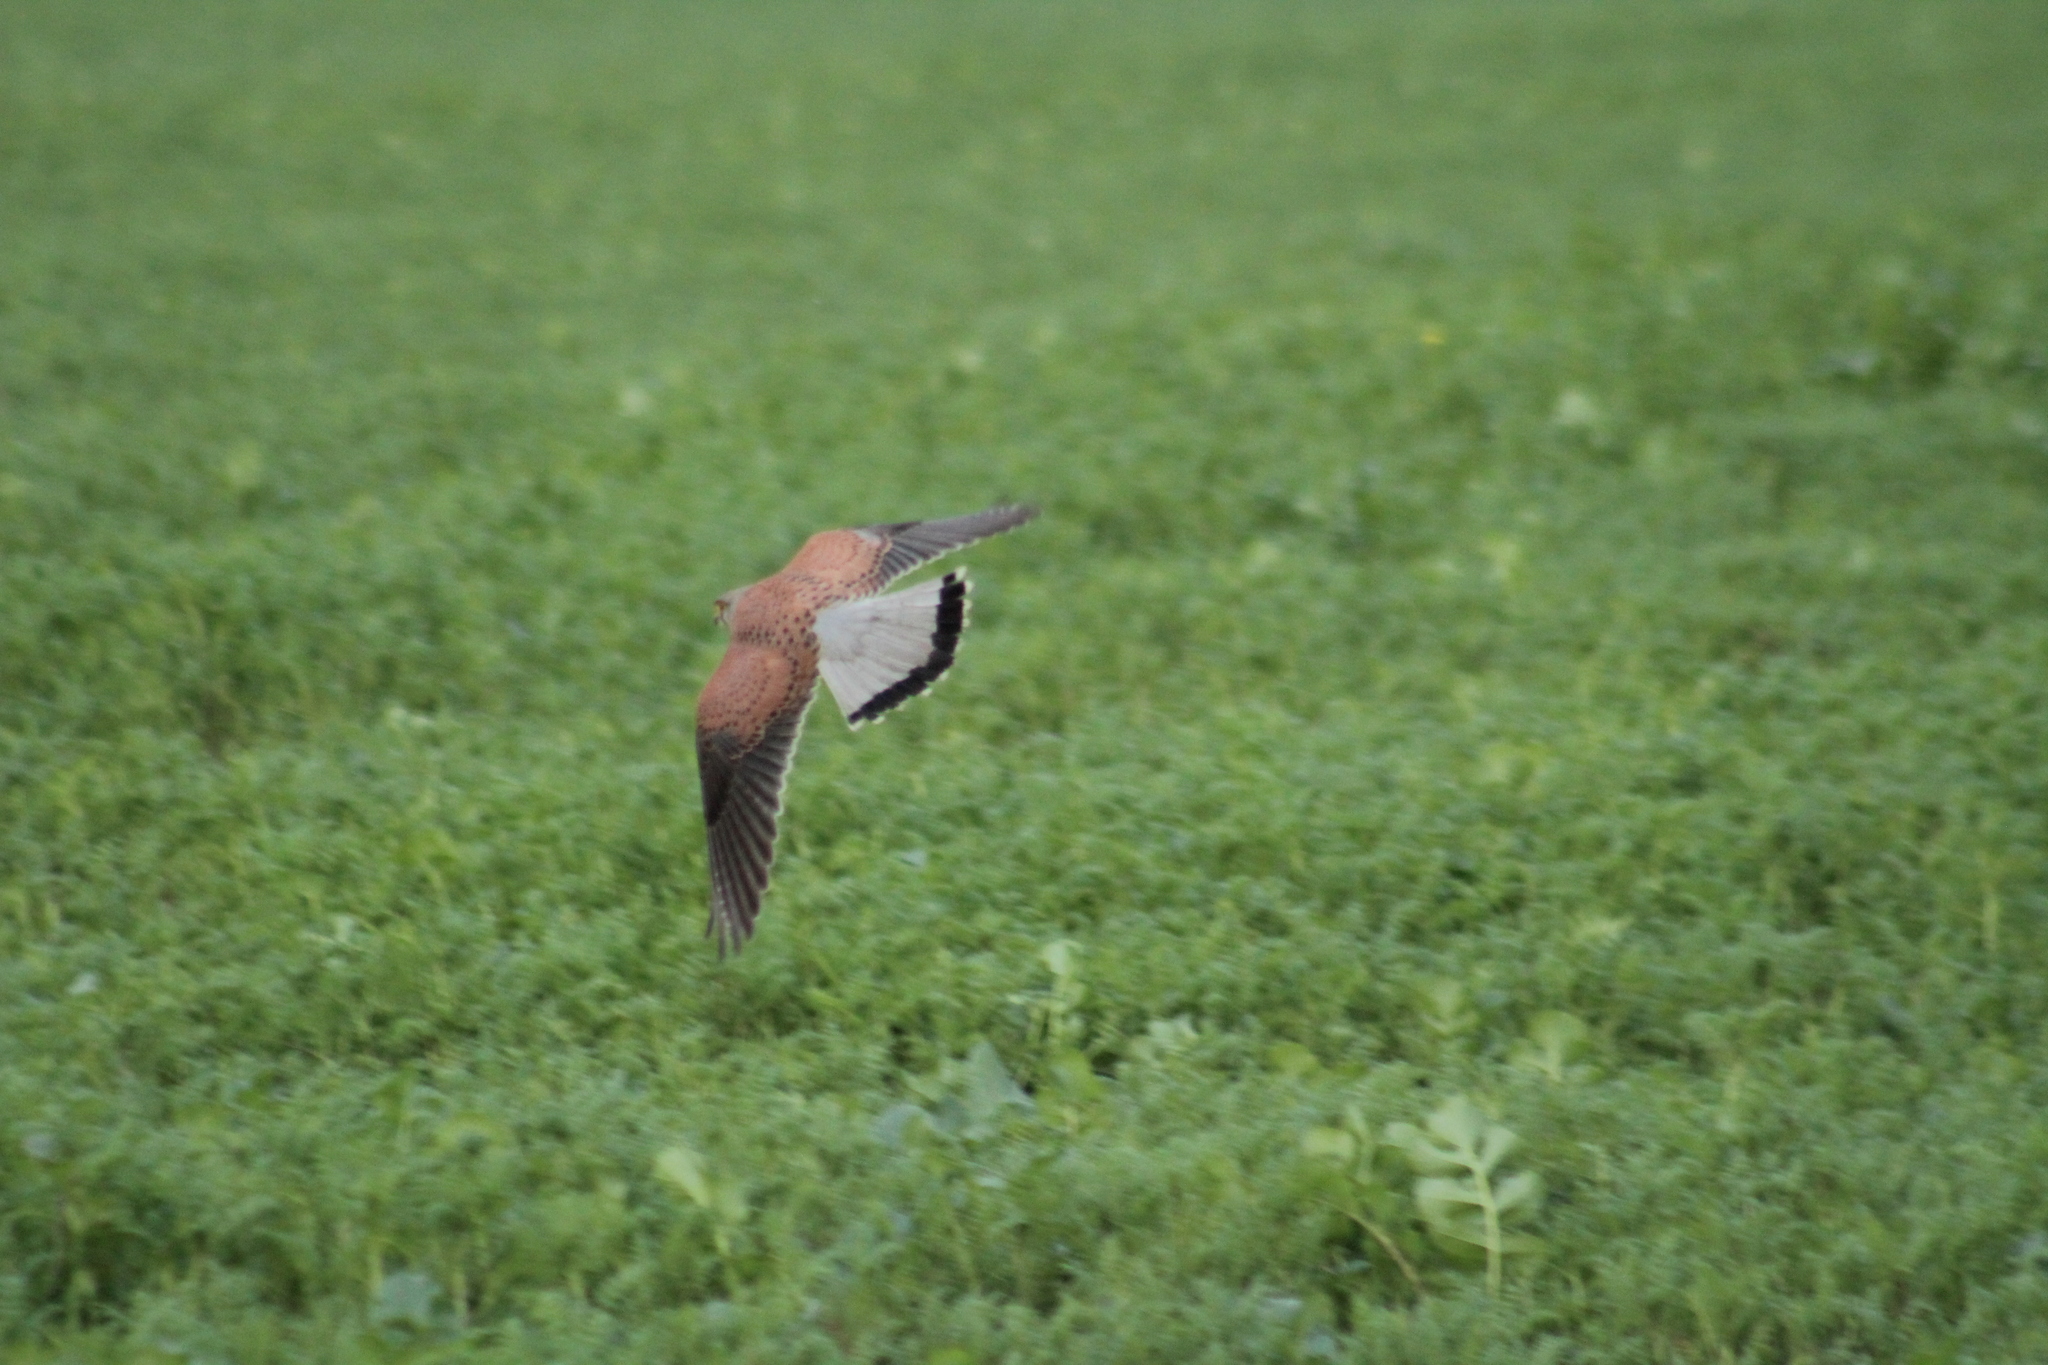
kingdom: Animalia
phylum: Chordata
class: Aves
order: Falconiformes
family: Falconidae
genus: Falco
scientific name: Falco tinnunculus
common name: Common kestrel
